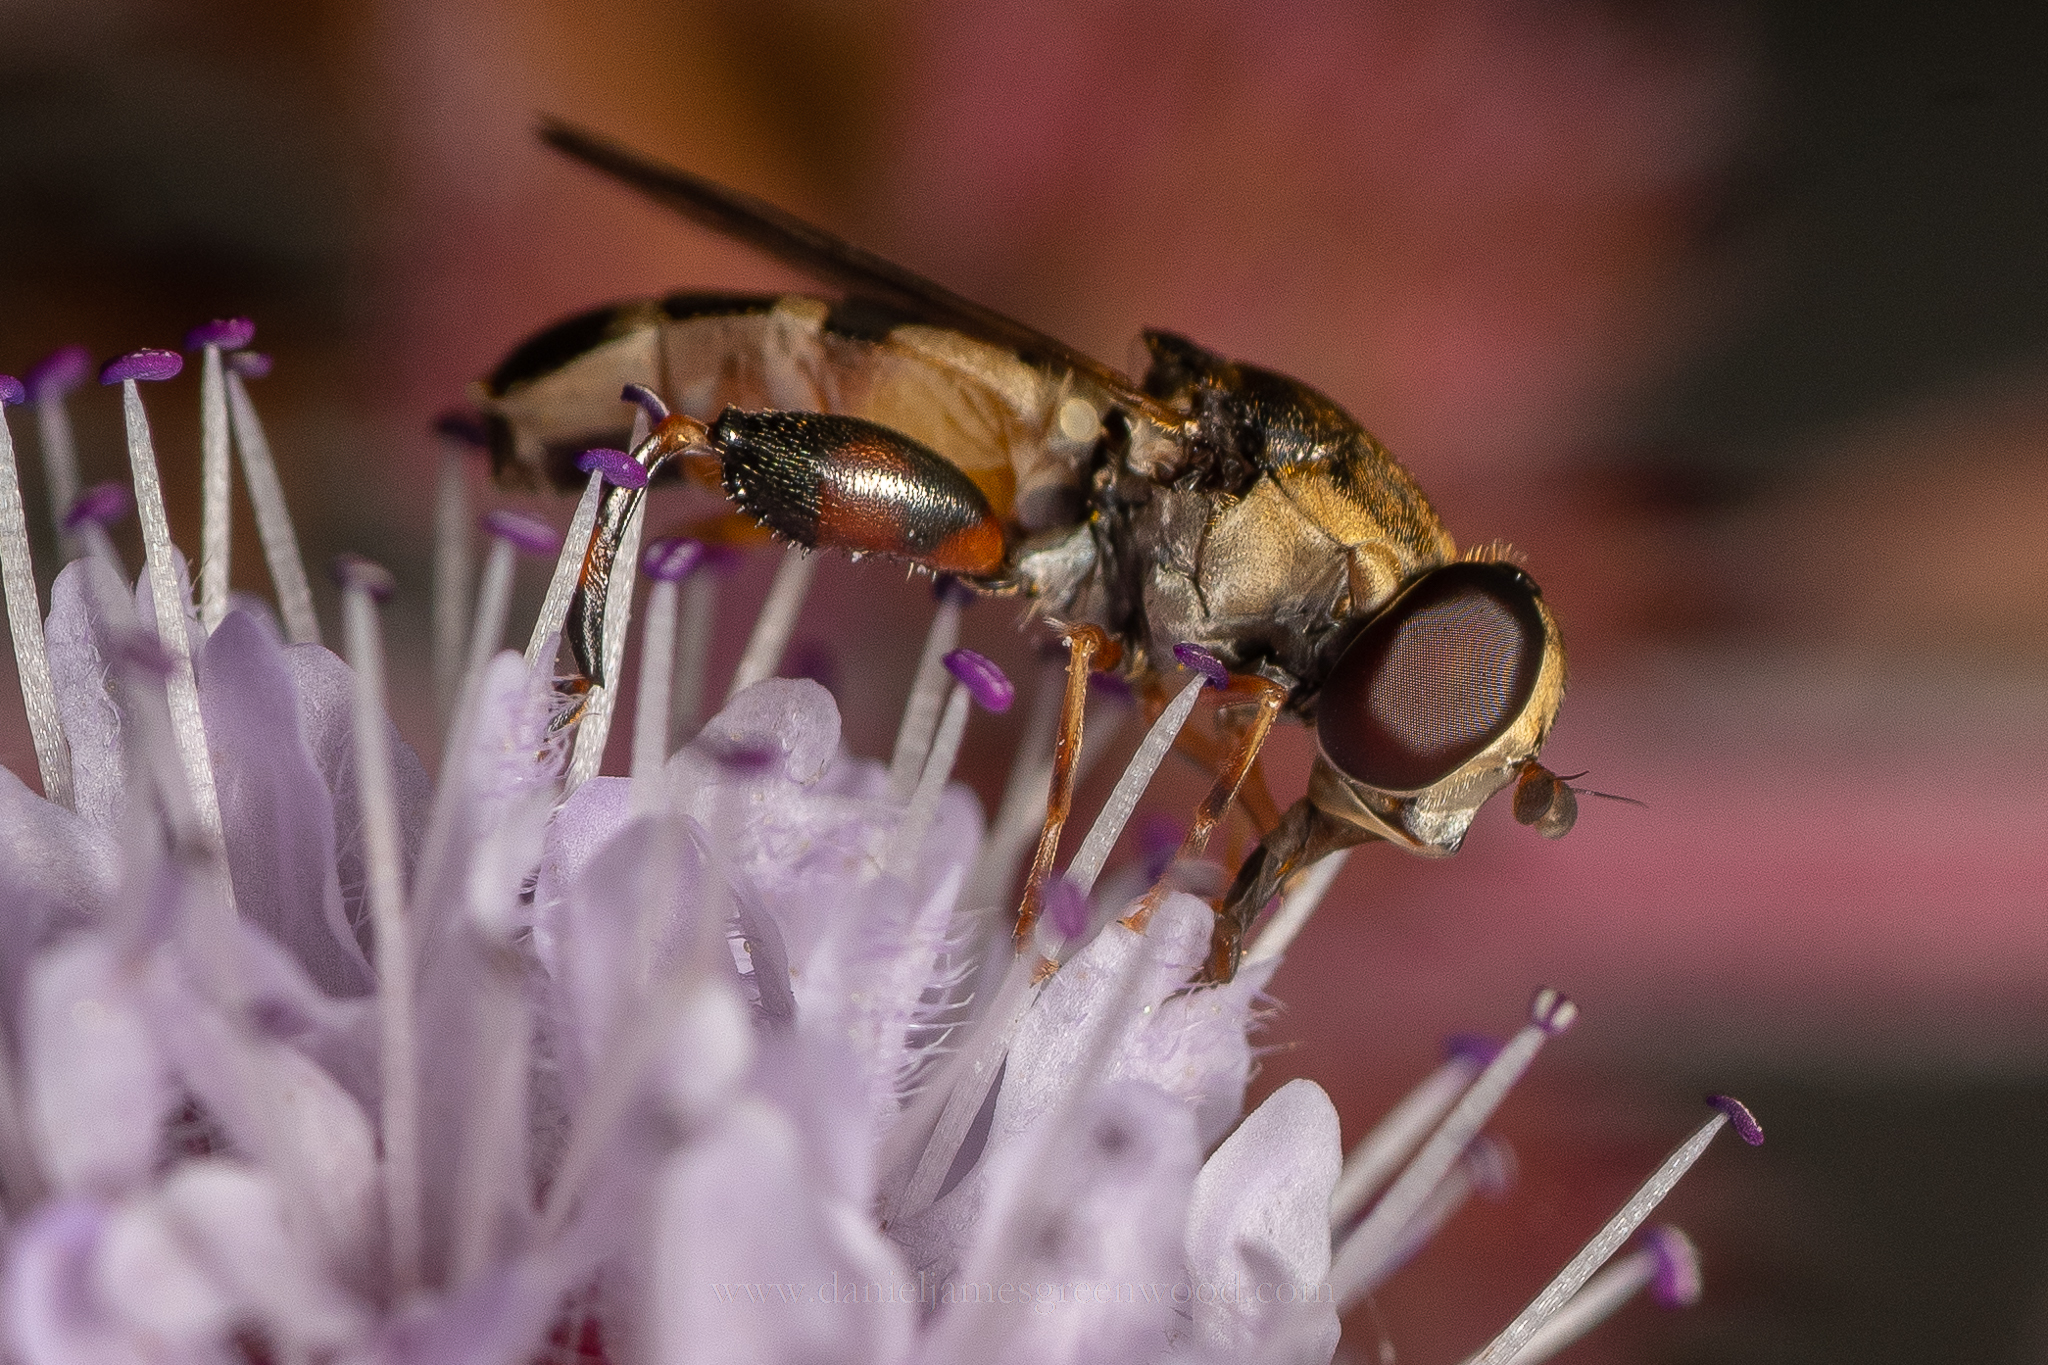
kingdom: Animalia
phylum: Arthropoda
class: Insecta
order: Diptera
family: Syrphidae
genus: Syritta
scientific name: Syritta pipiens
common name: Hover fly
